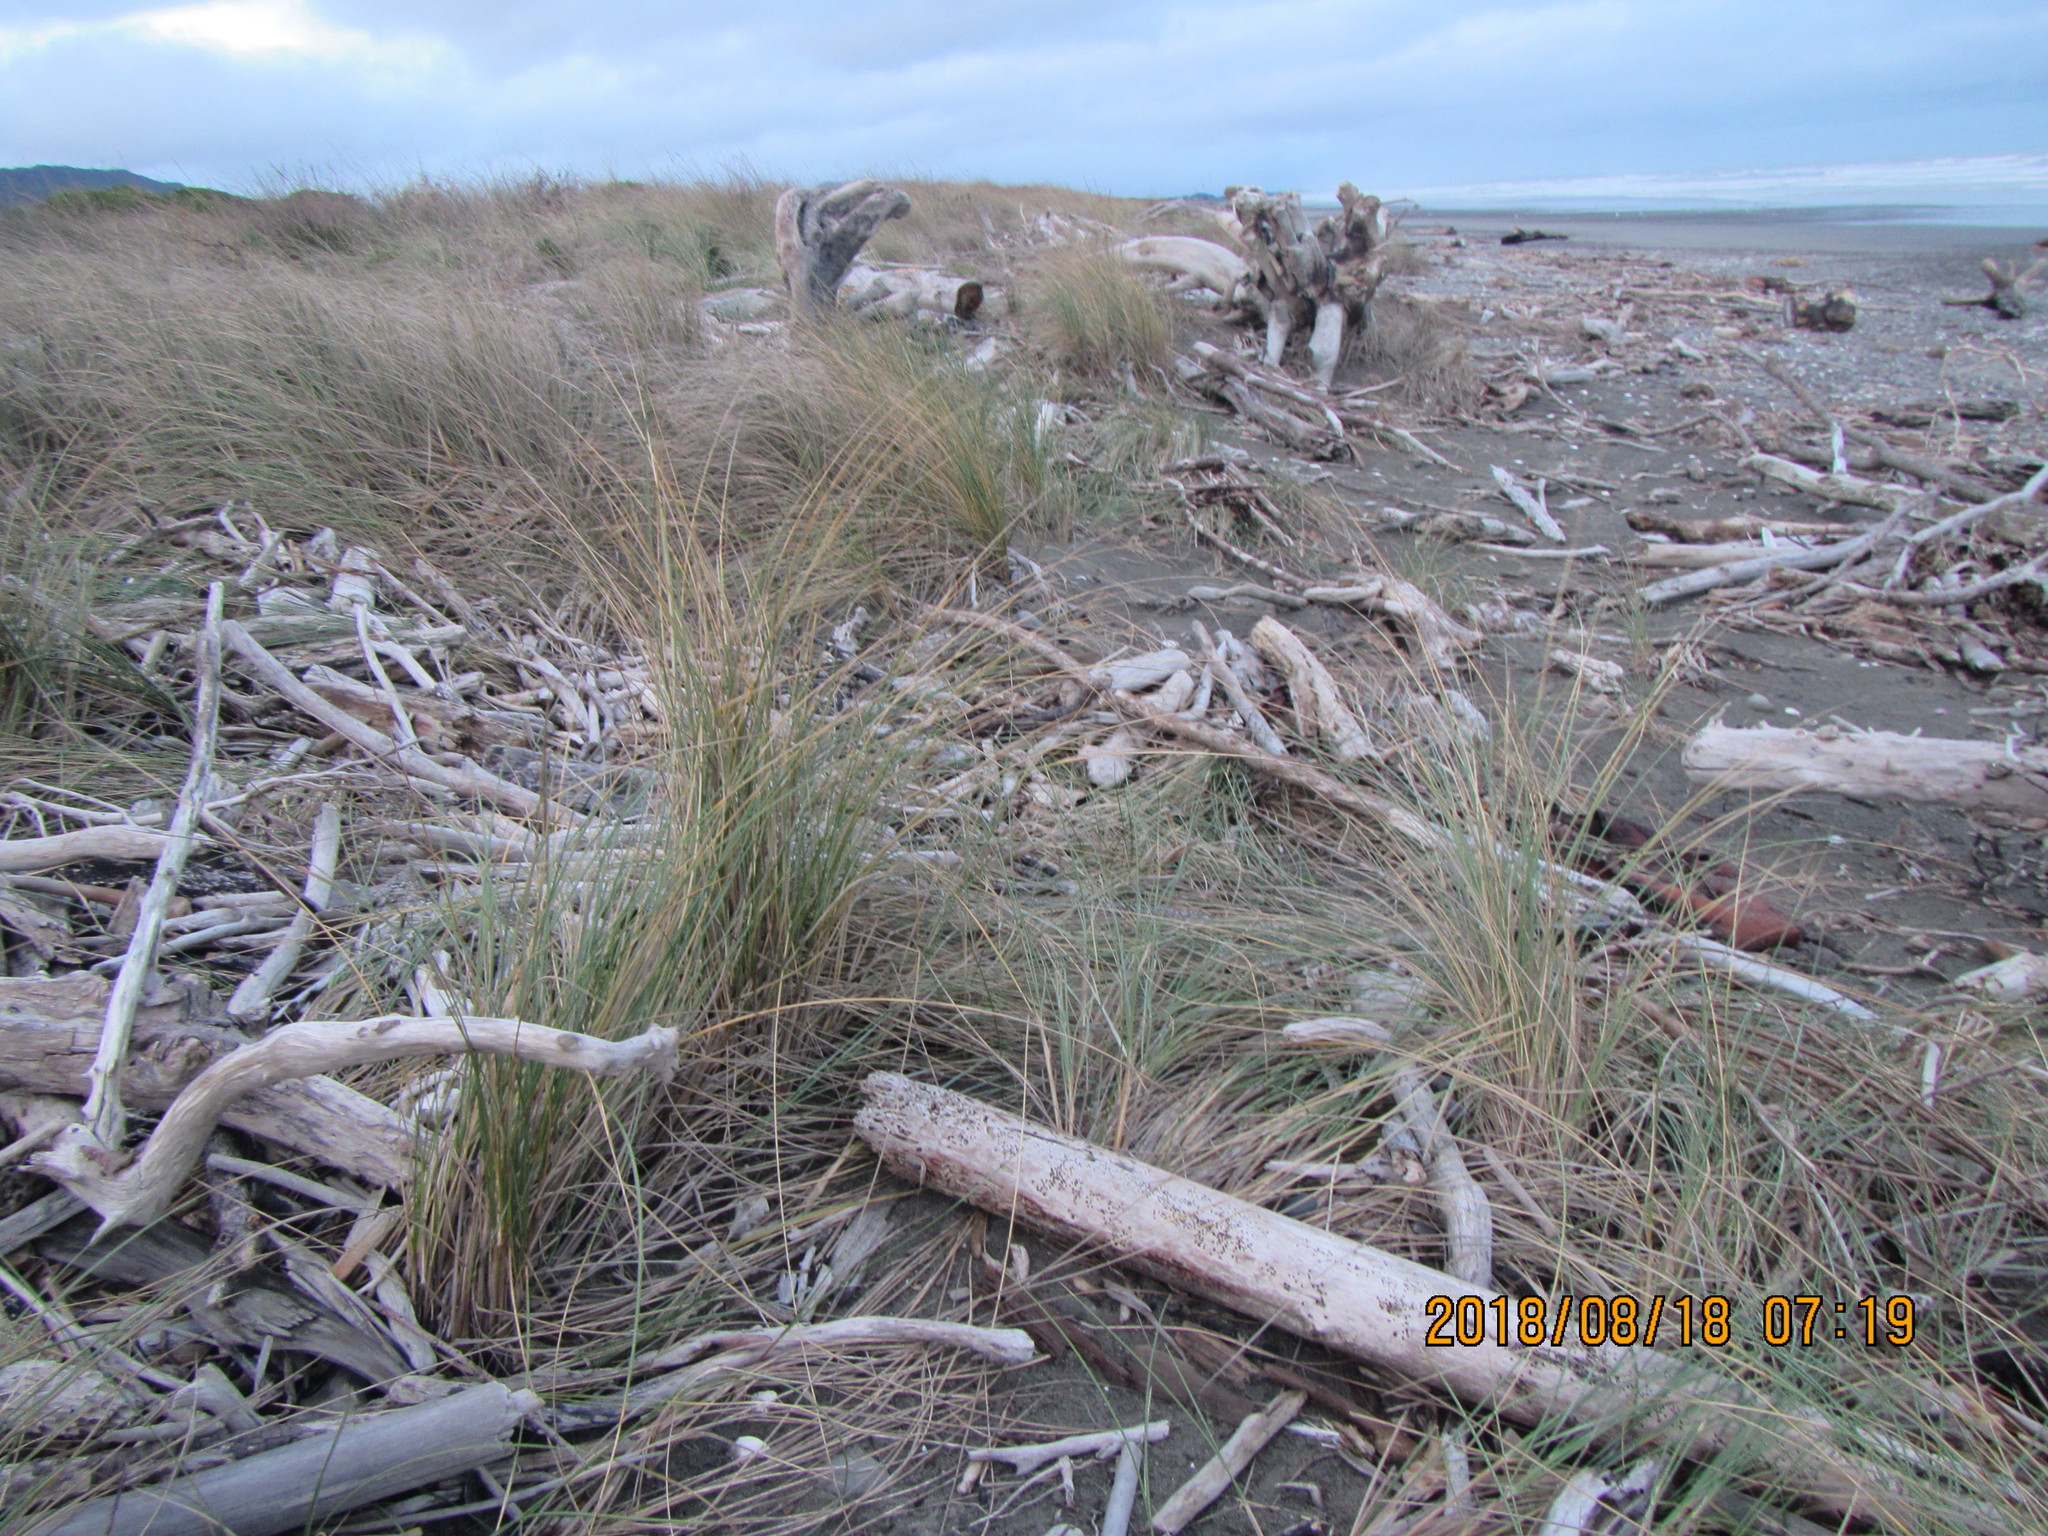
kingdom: Plantae
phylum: Tracheophyta
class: Liliopsida
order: Poales
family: Poaceae
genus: Calamagrostis
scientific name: Calamagrostis arenaria
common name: European beachgrass
